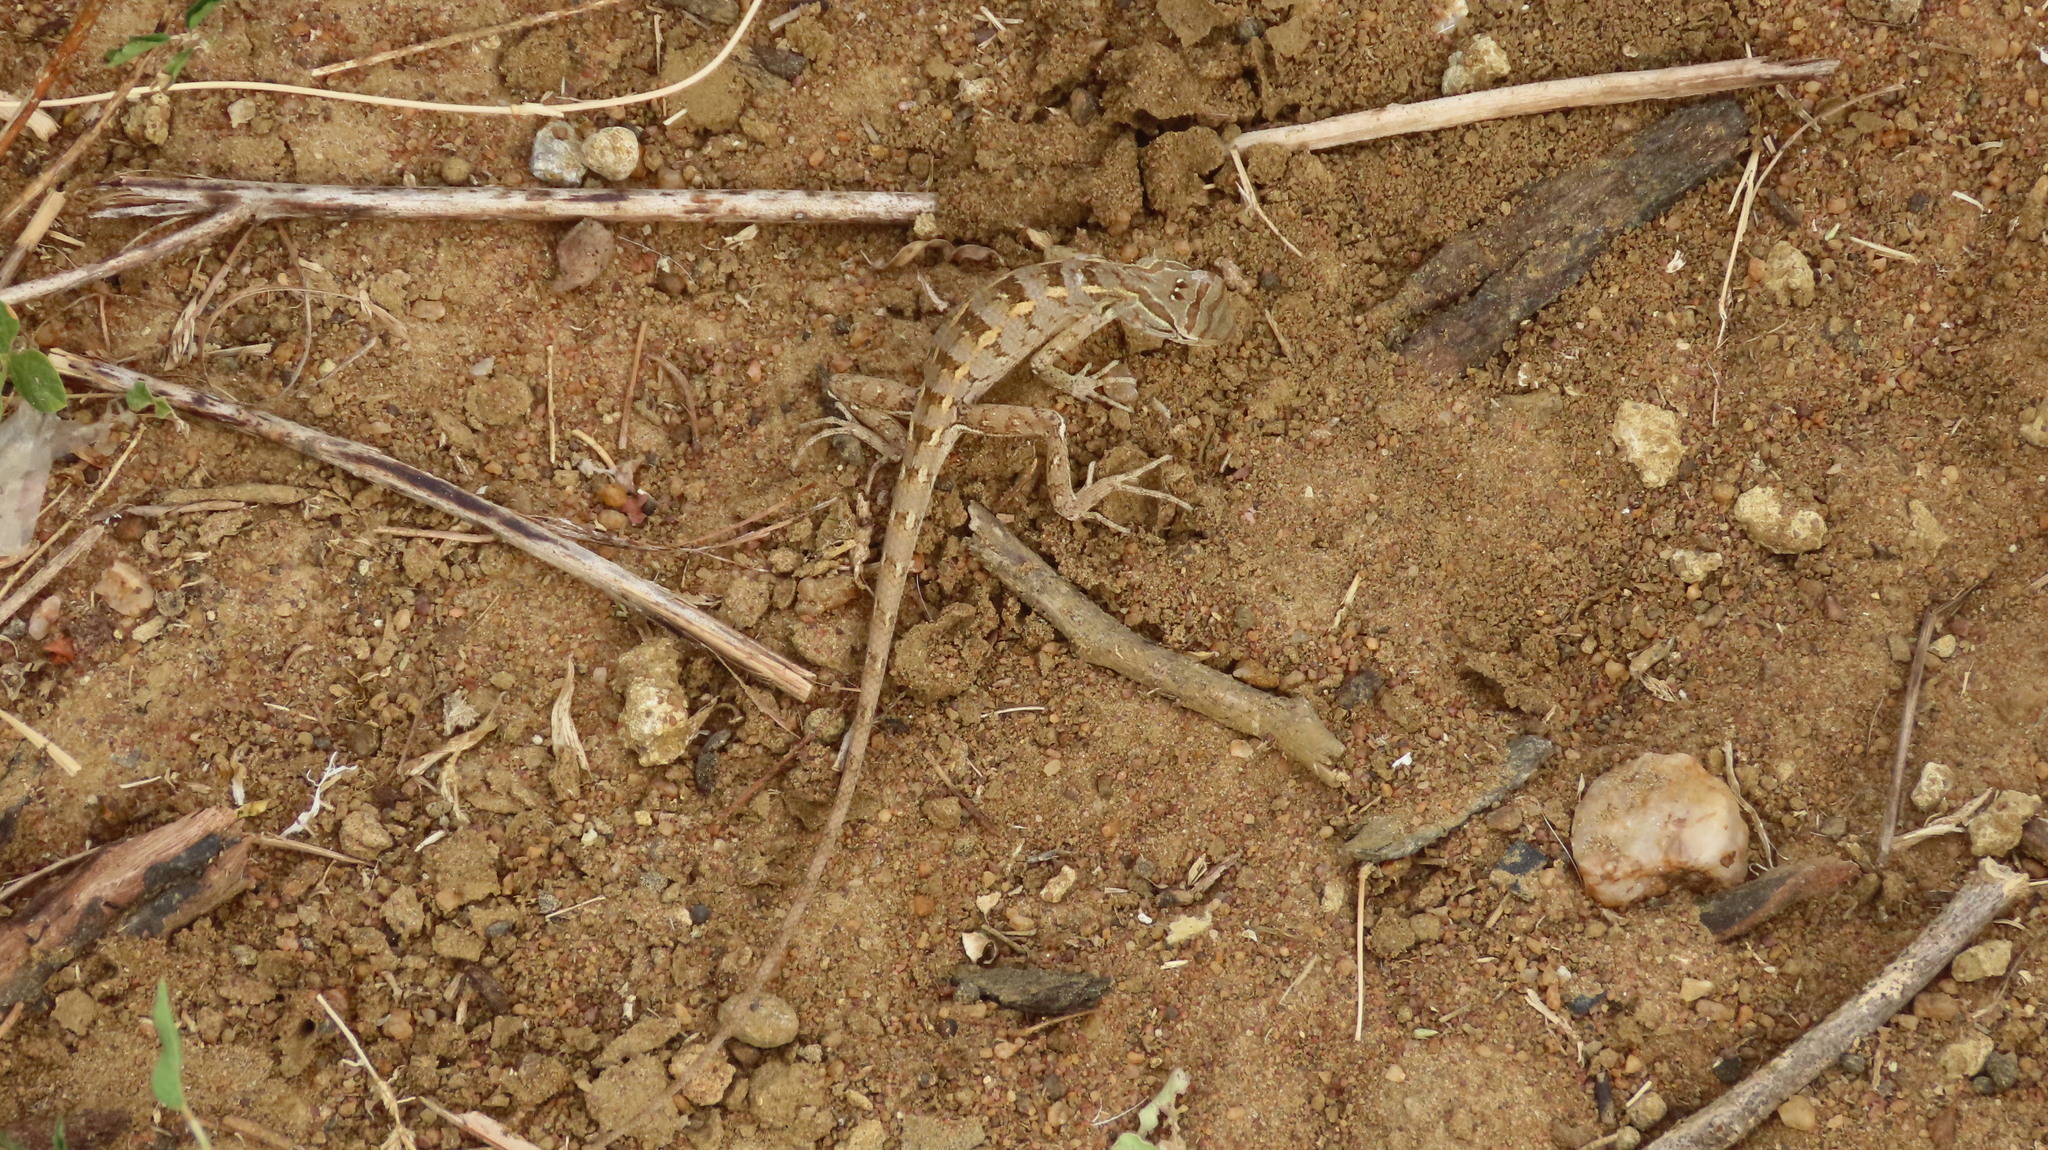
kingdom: Animalia
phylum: Chordata
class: Squamata
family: Agamidae
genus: Calotes
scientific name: Calotes versicolor
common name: Oriental garden lizard
